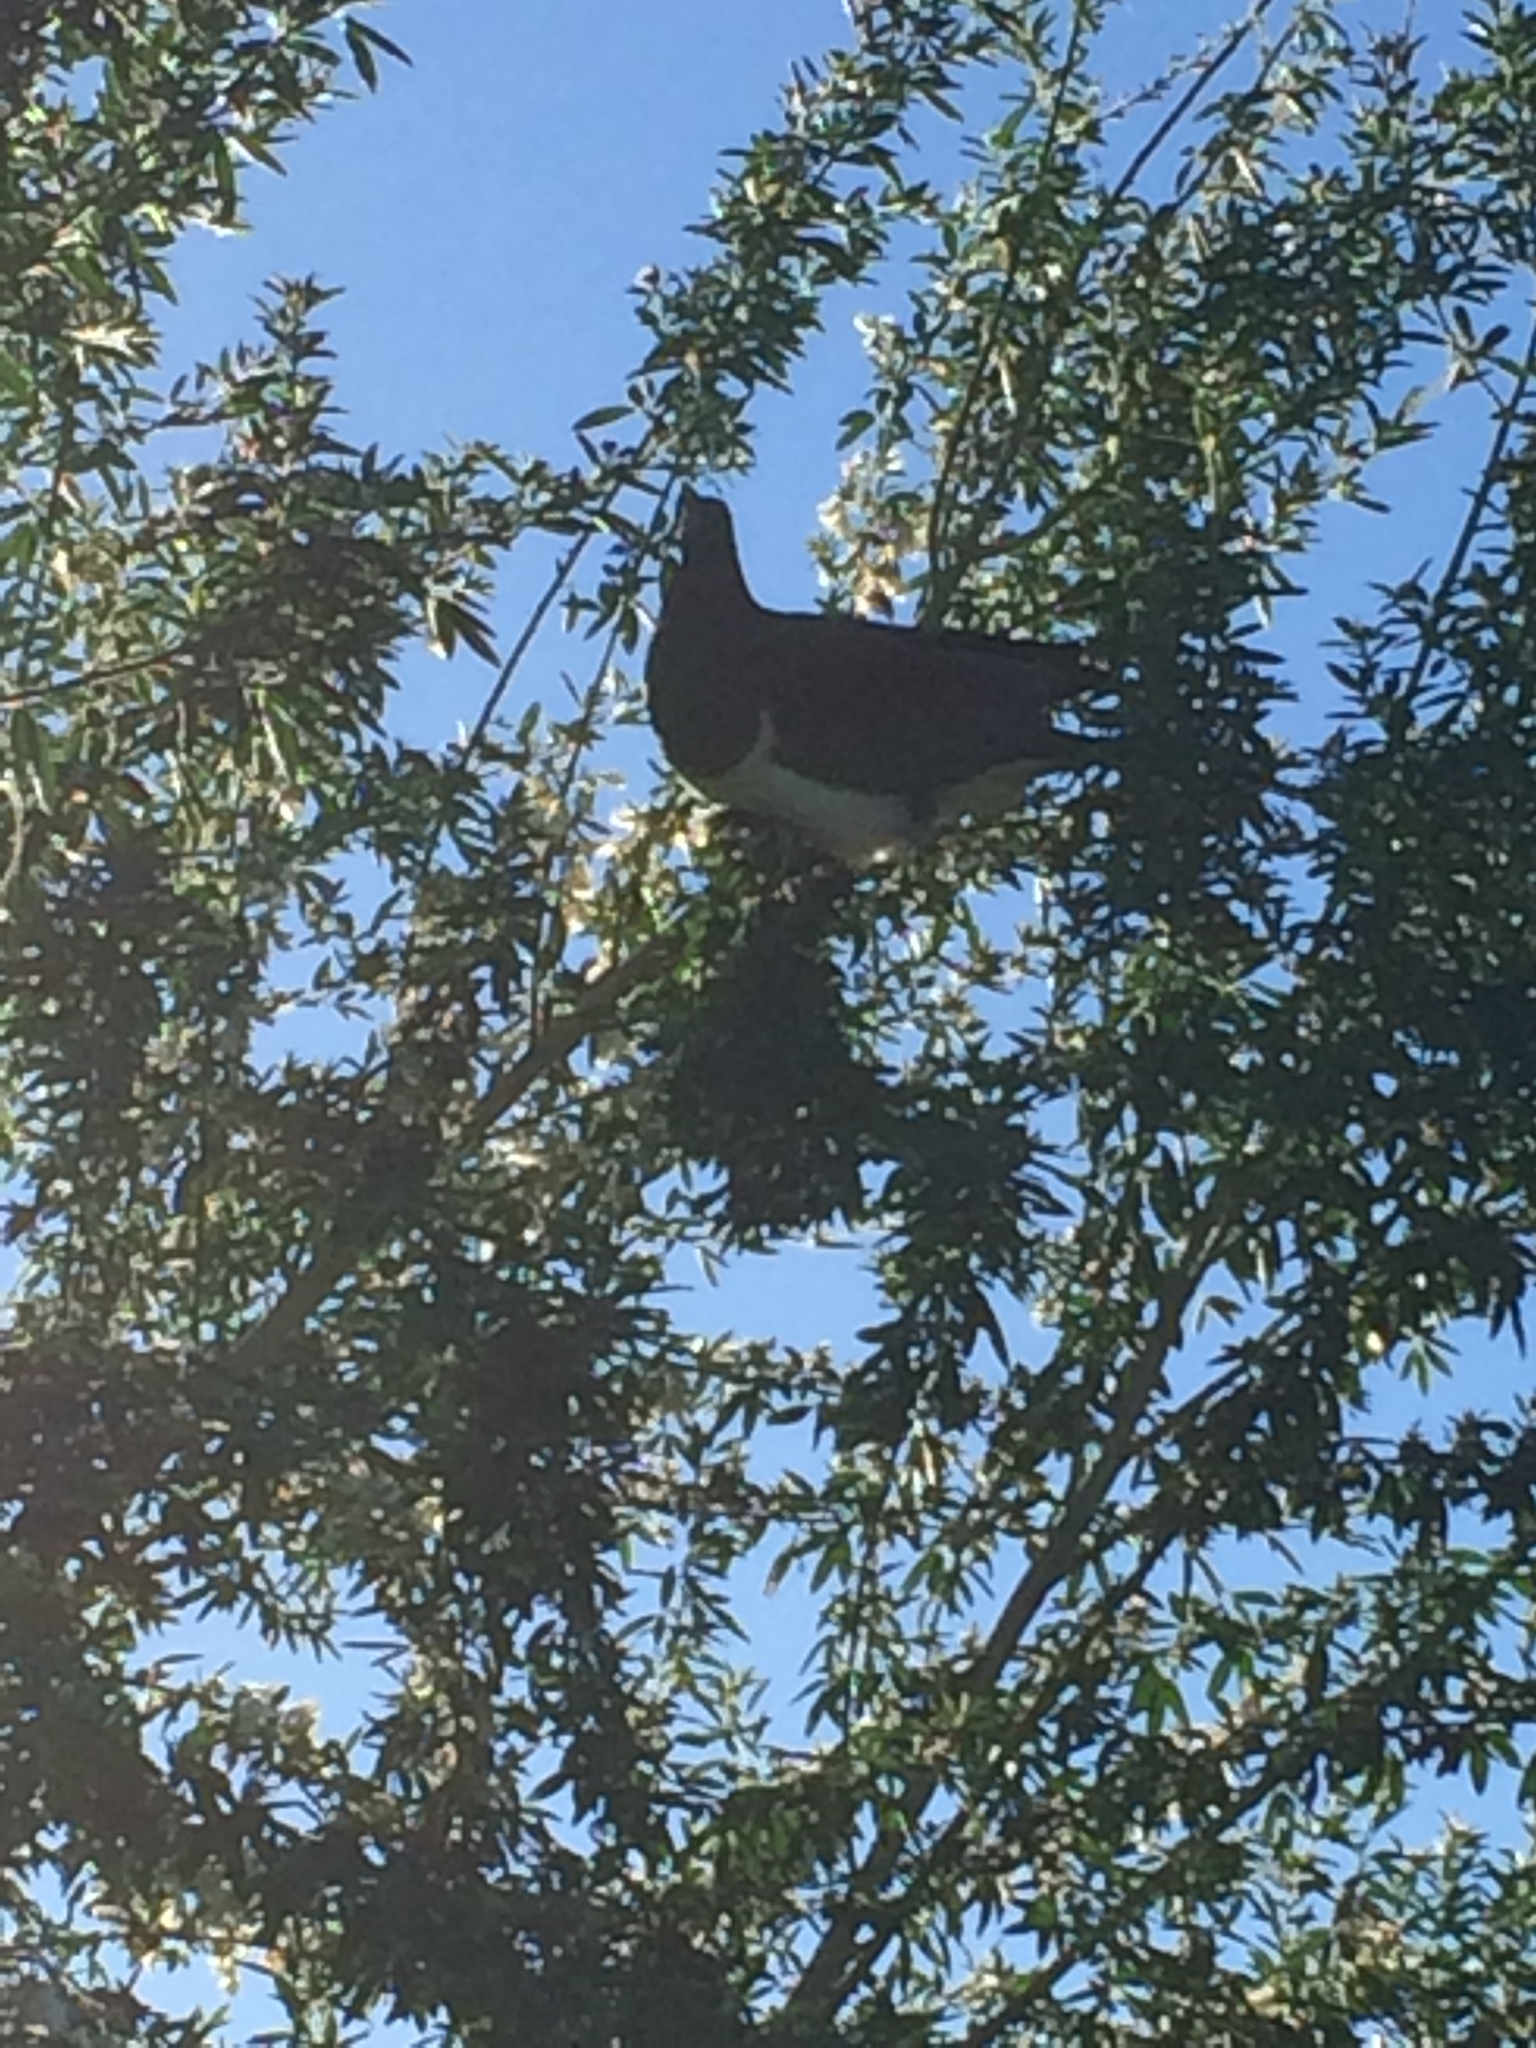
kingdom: Animalia
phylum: Chordata
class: Aves
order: Columbiformes
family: Columbidae
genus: Hemiphaga
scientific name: Hemiphaga novaeseelandiae
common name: New zealand pigeon
